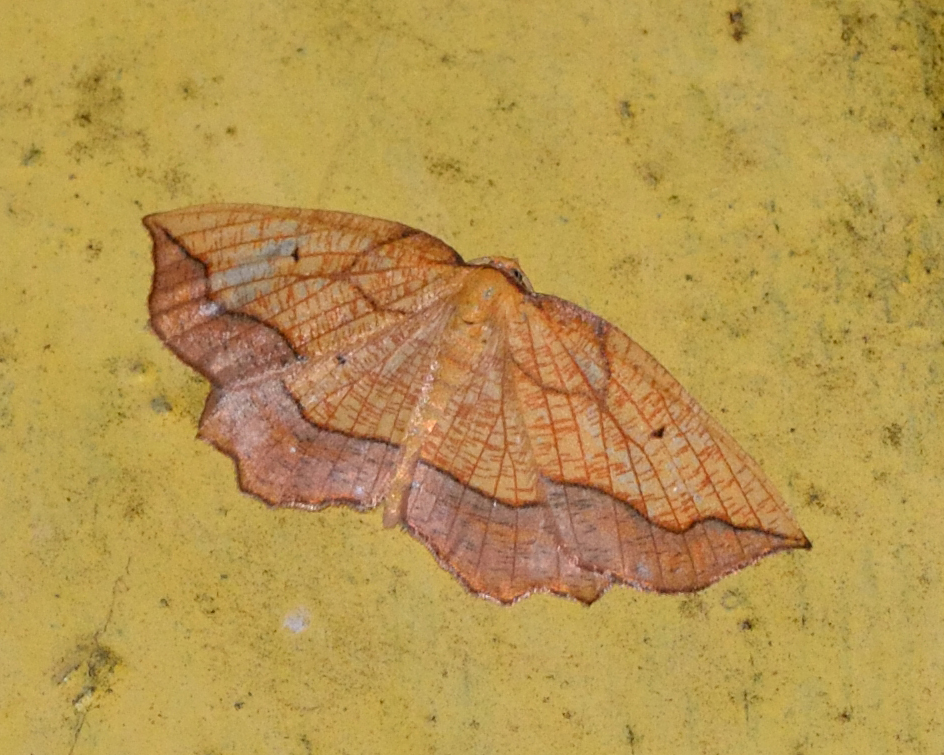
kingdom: Animalia
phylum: Arthropoda
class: Insecta
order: Lepidoptera
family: Geometridae
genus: Epione
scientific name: Epione repandaria
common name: Bordered beauty
